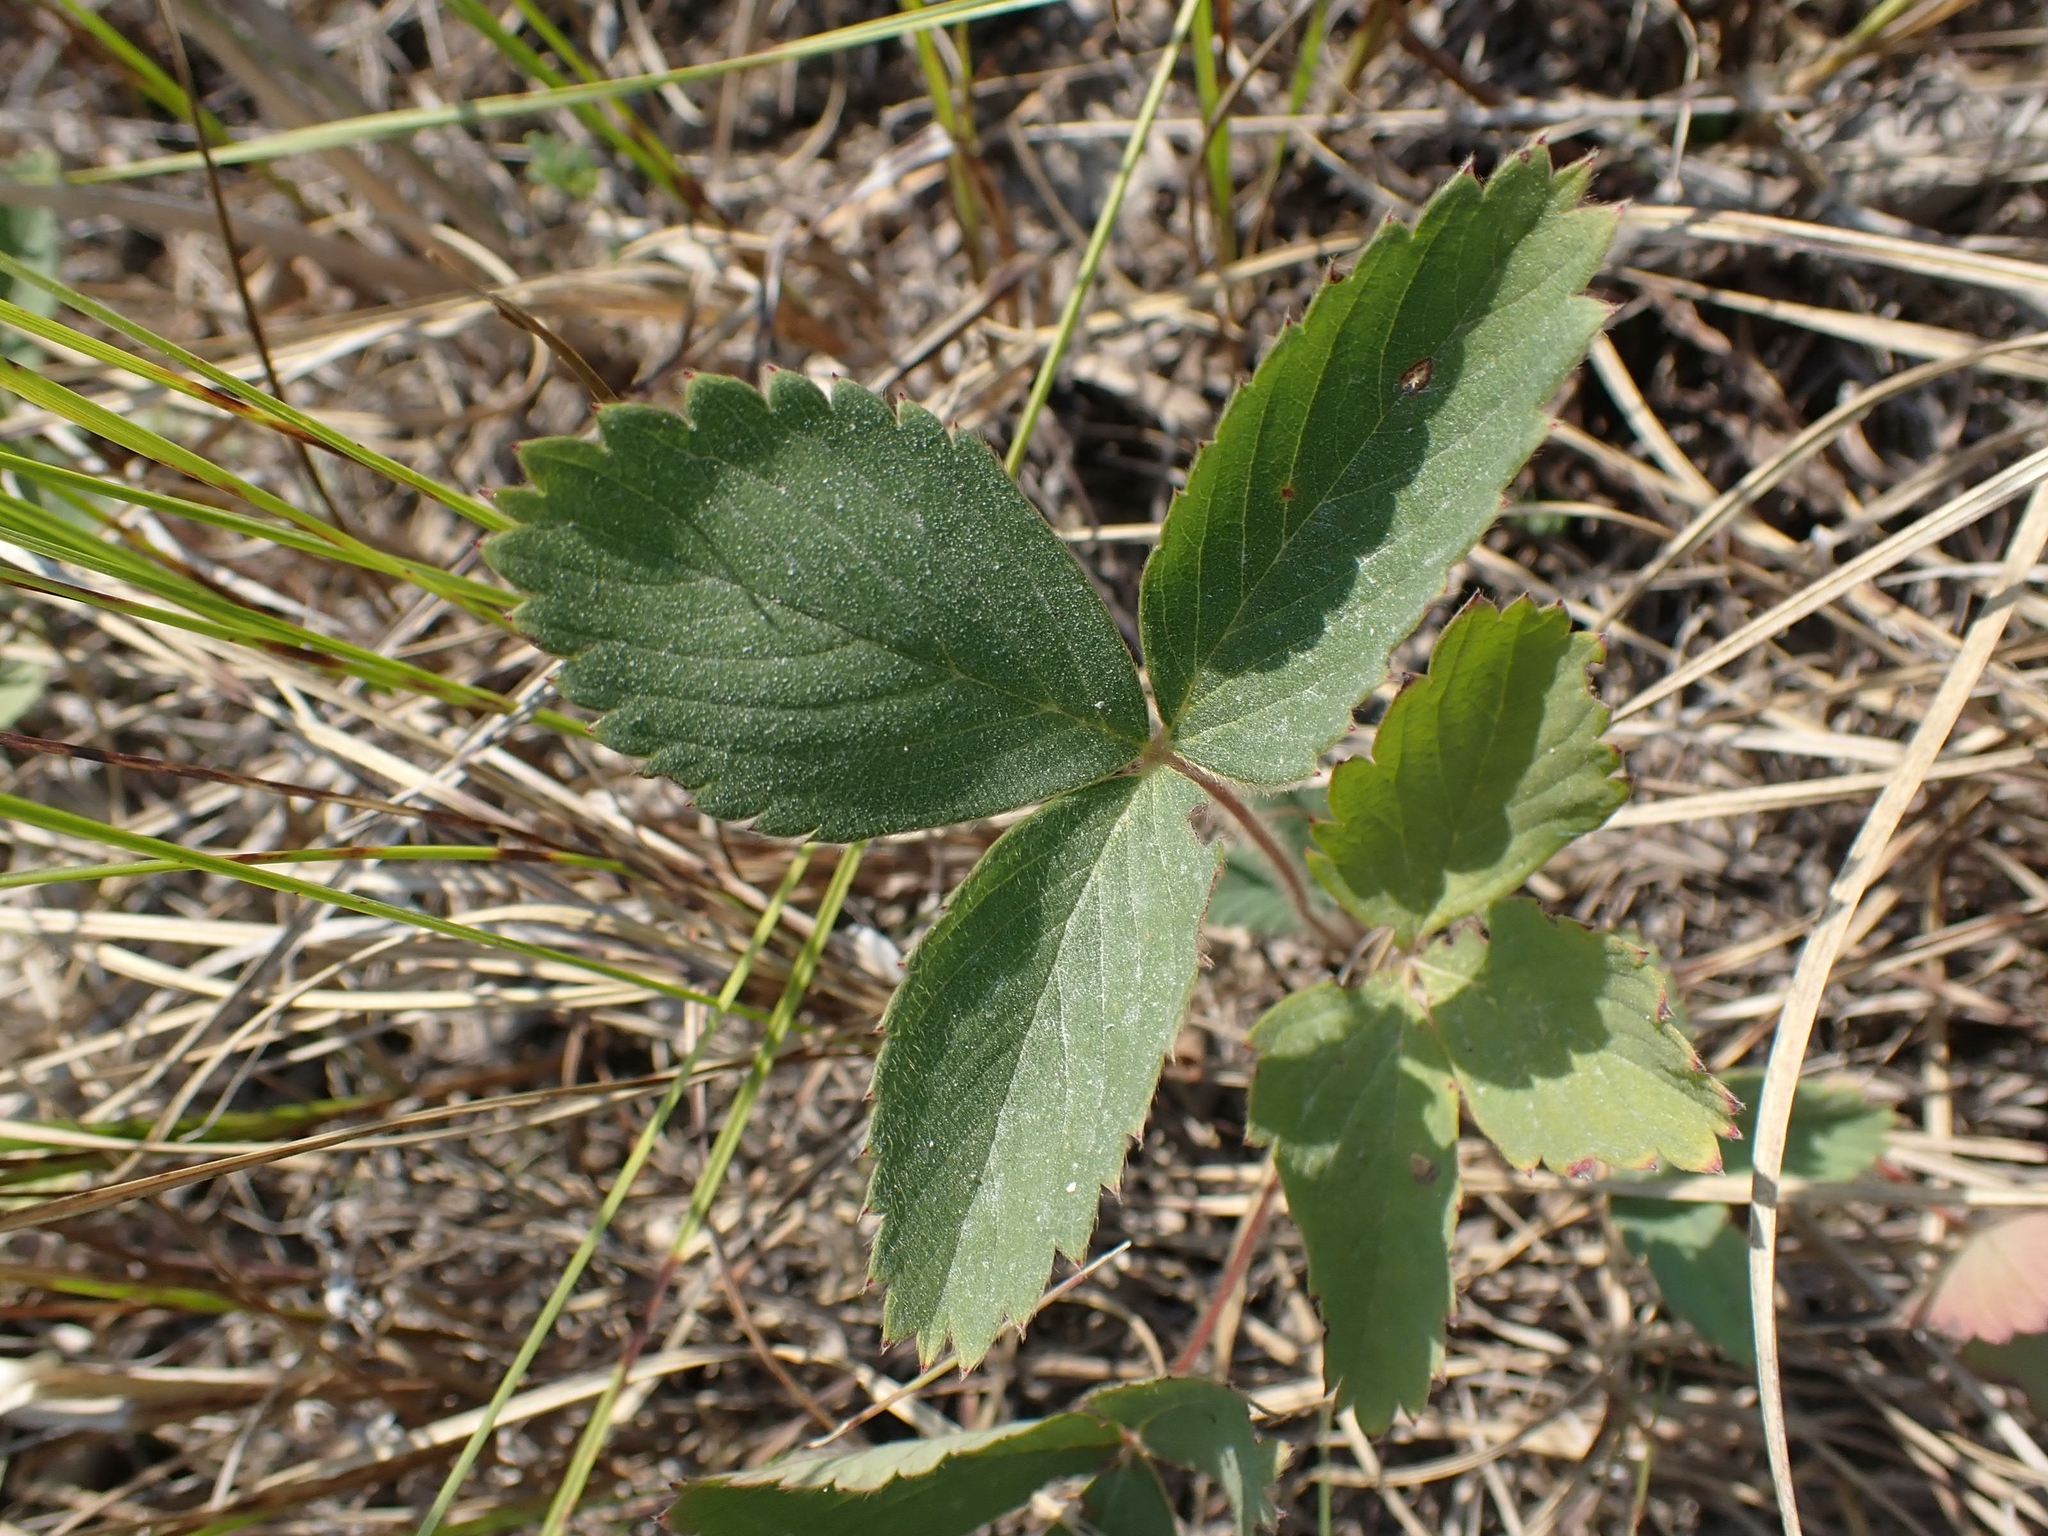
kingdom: Plantae
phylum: Tracheophyta
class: Magnoliopsida
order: Rosales
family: Rosaceae
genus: Fragaria
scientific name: Fragaria virginiana
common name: Thickleaved wild strawberry
